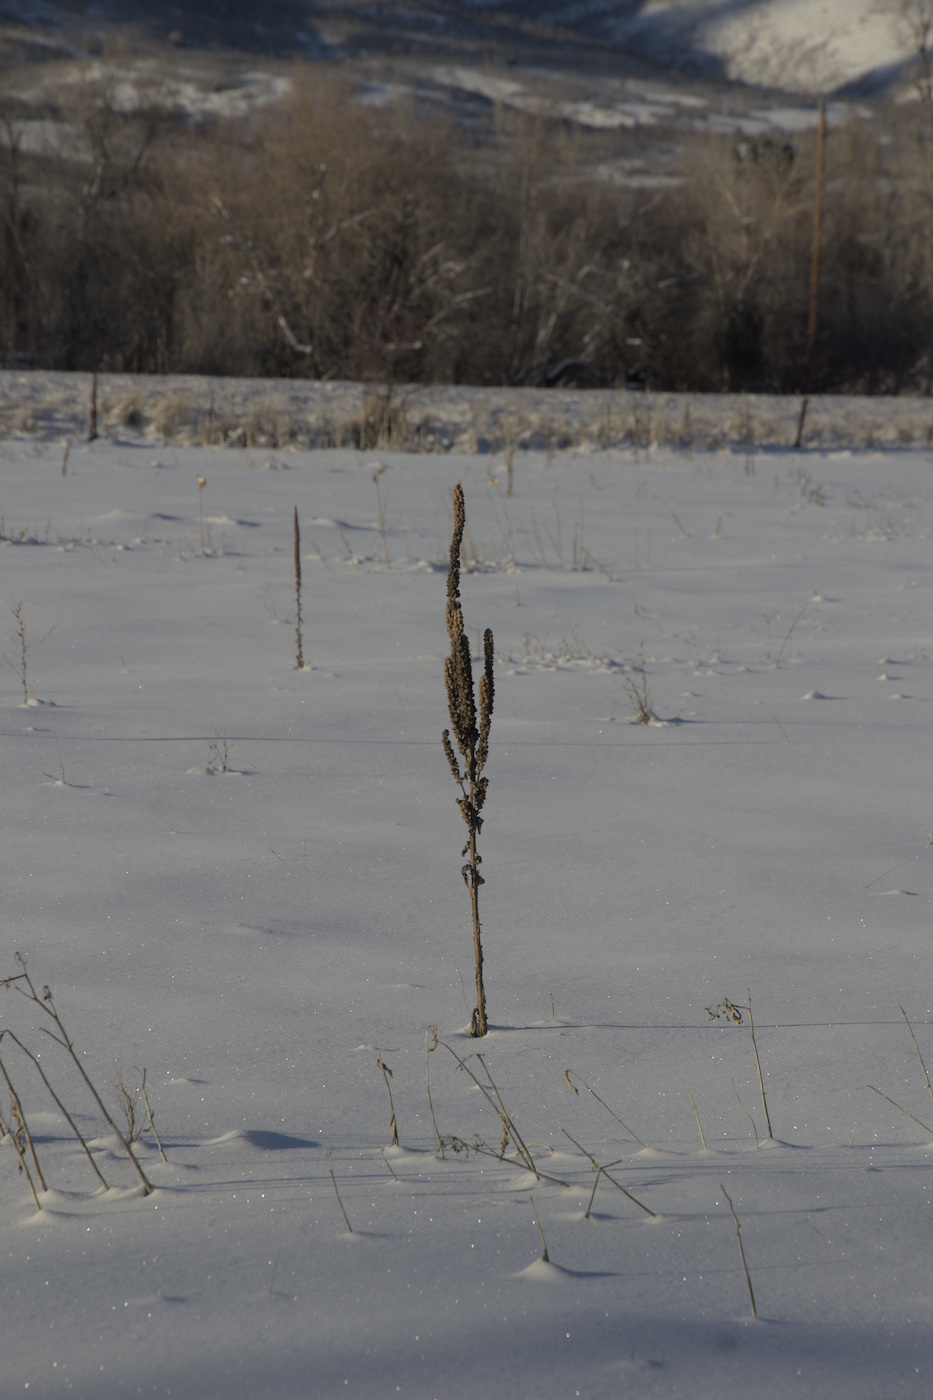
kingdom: Plantae
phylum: Tracheophyta
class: Magnoliopsida
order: Lamiales
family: Scrophulariaceae
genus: Verbascum
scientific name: Verbascum thapsus
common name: Common mullein
